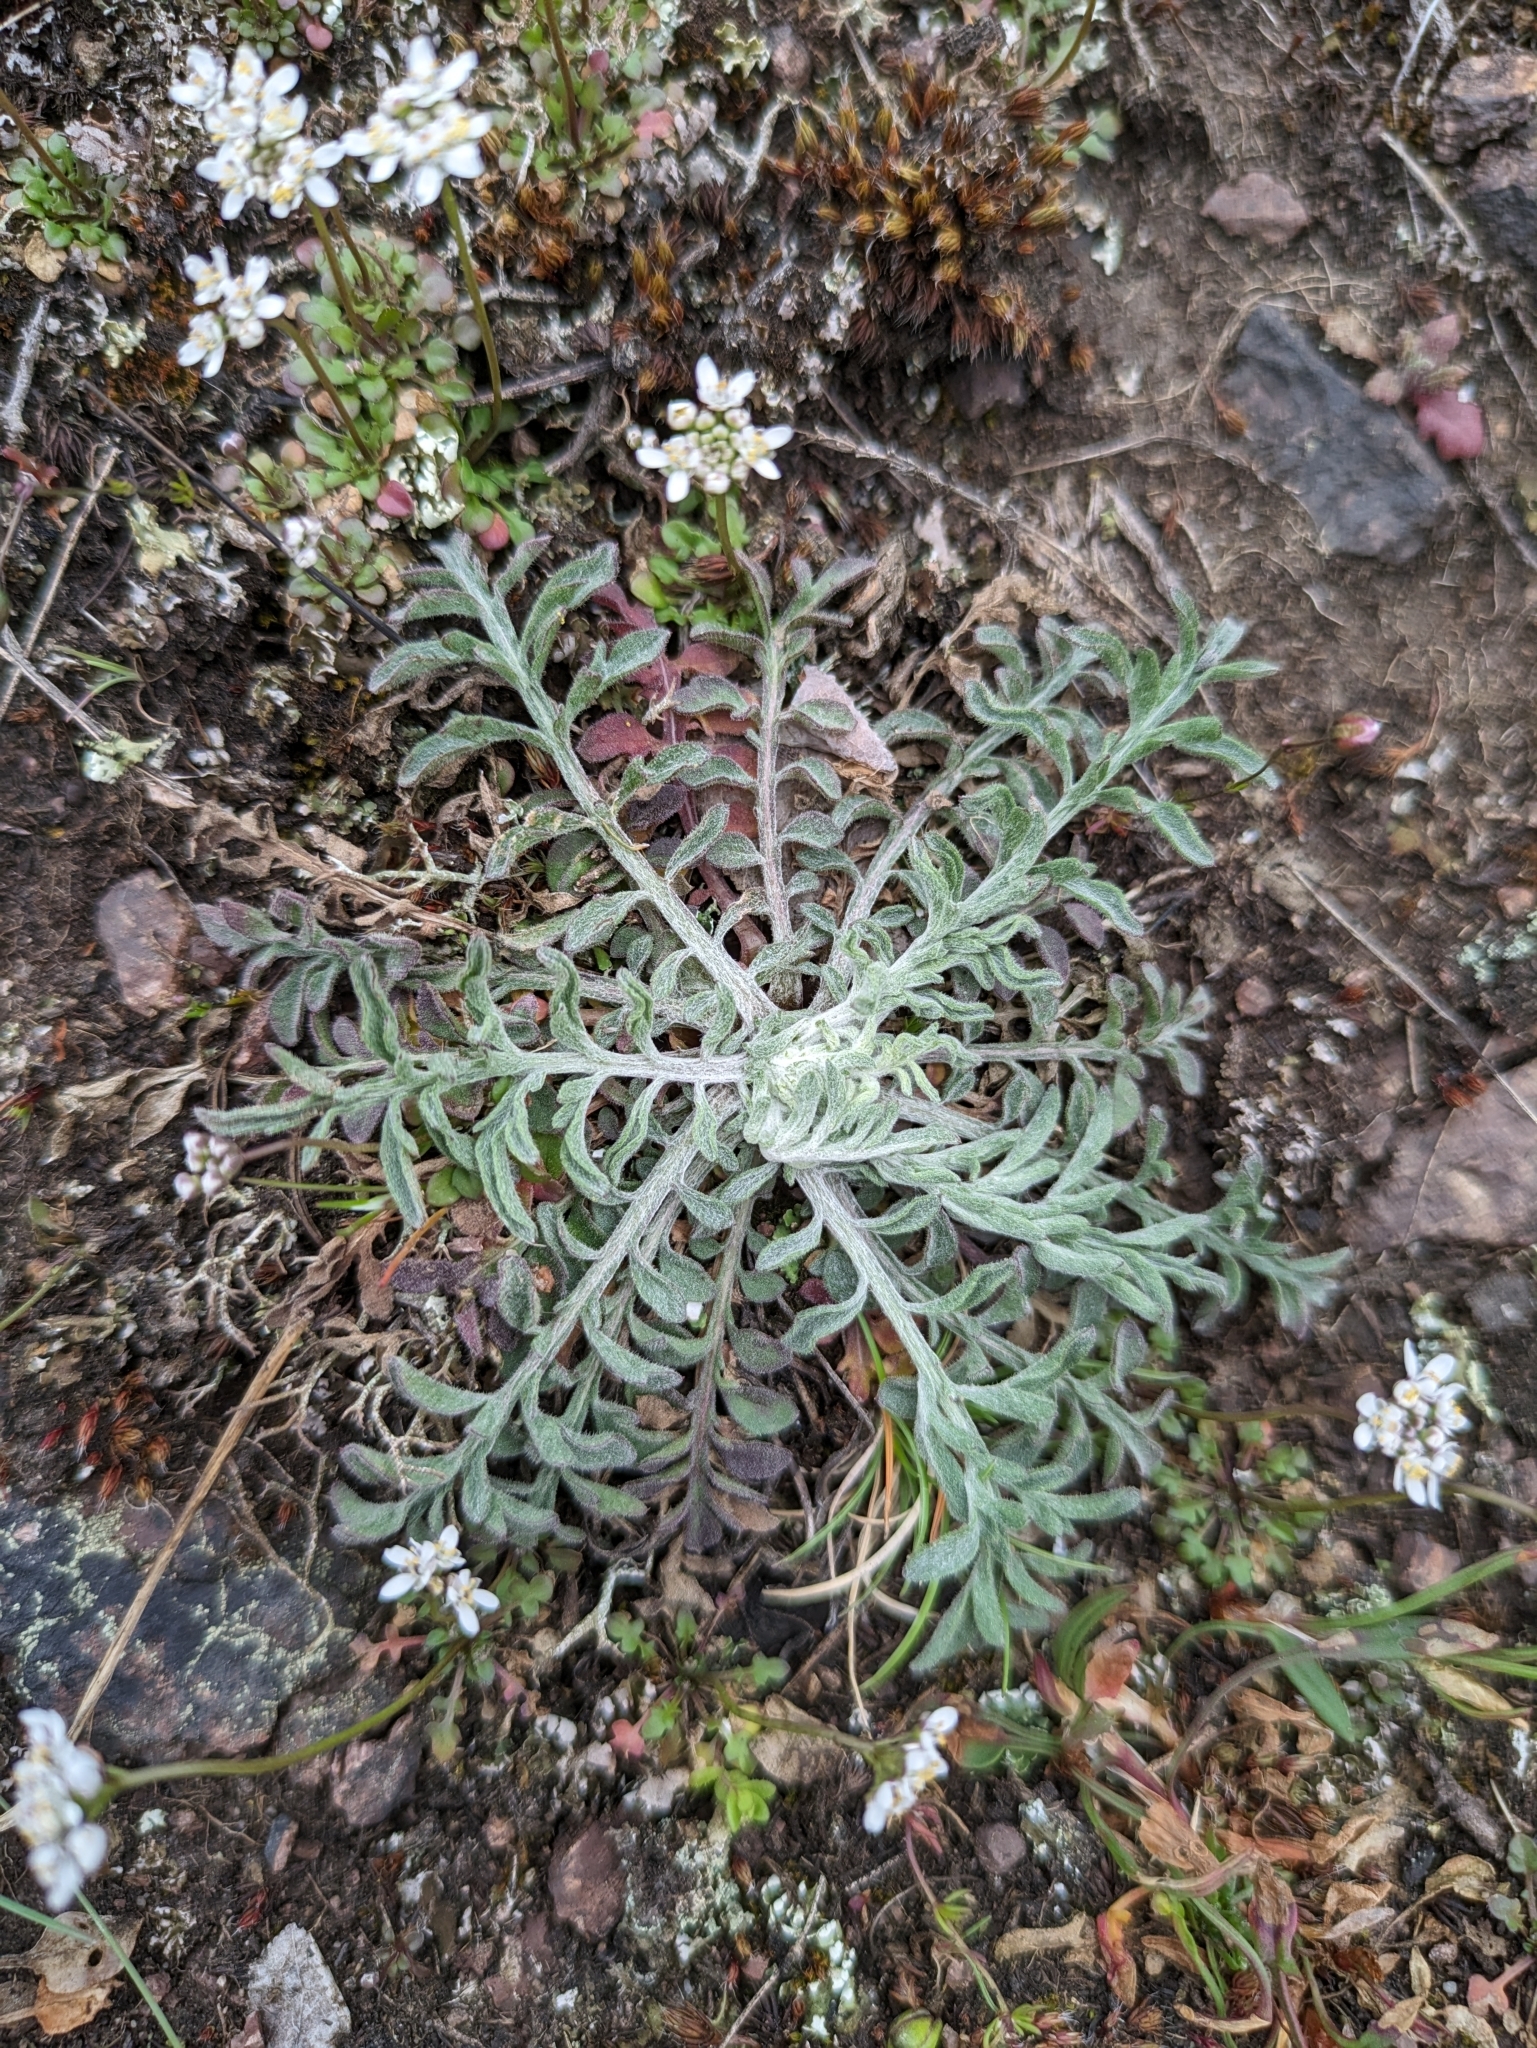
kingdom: Plantae
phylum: Tracheophyta
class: Magnoliopsida
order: Asterales
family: Asteraceae
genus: Centaurea
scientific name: Centaurea stoebe
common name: Spotted knapweed
